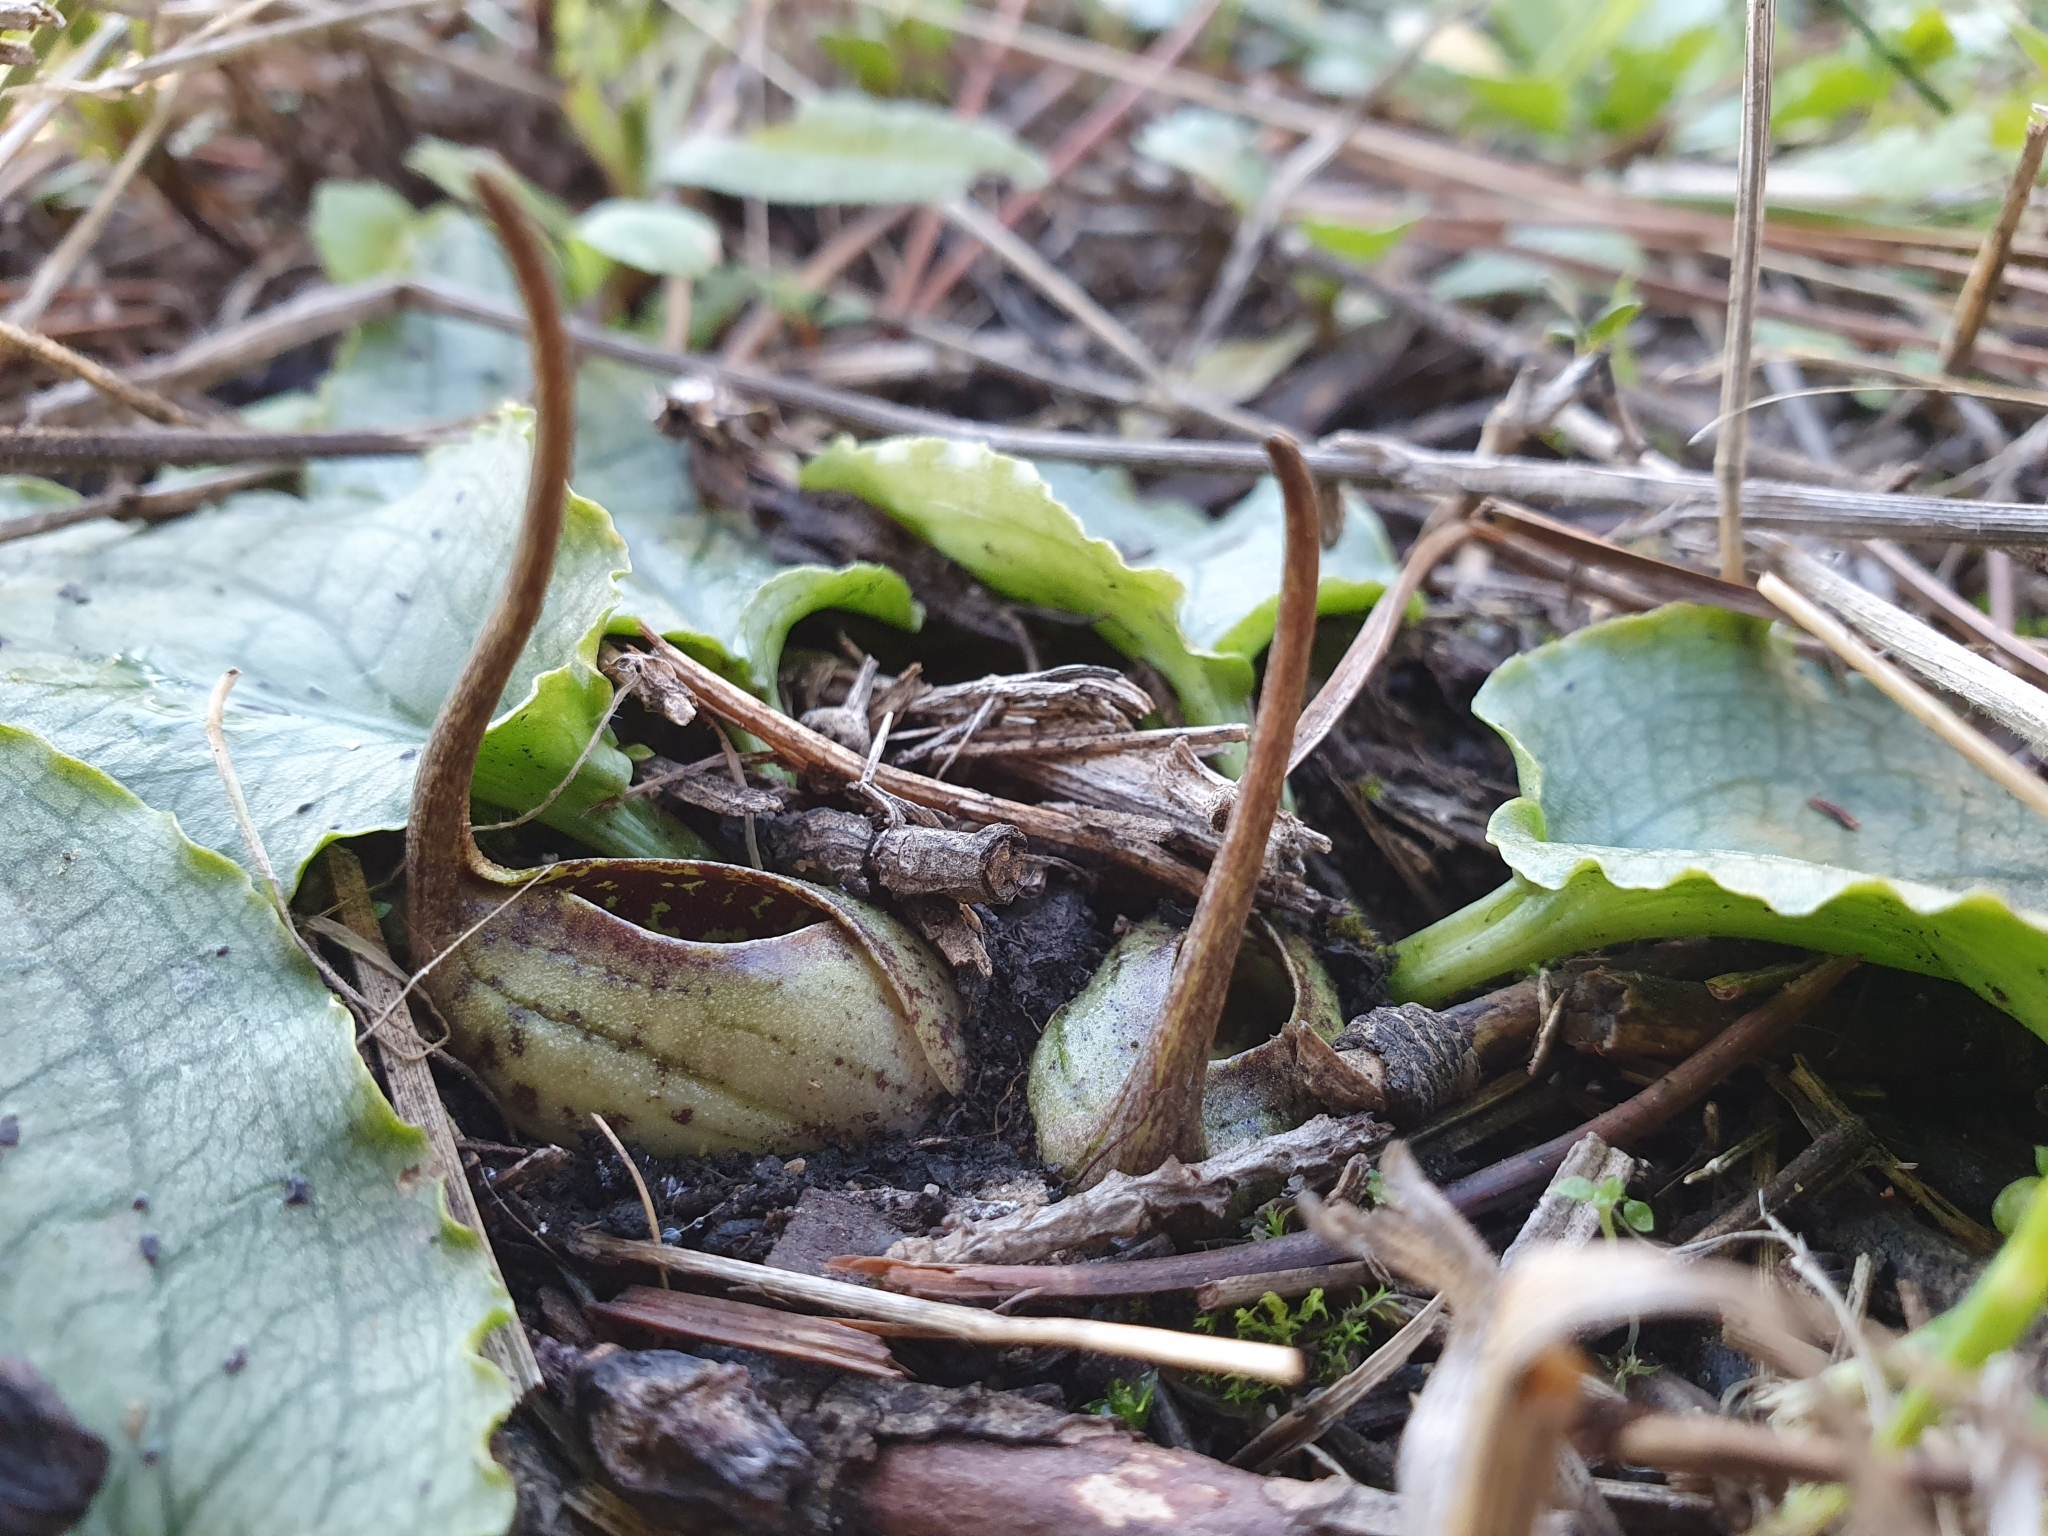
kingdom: Plantae
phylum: Tracheophyta
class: Liliopsida
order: Alismatales
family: Araceae
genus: Ambrosina
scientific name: Ambrosina bassii
